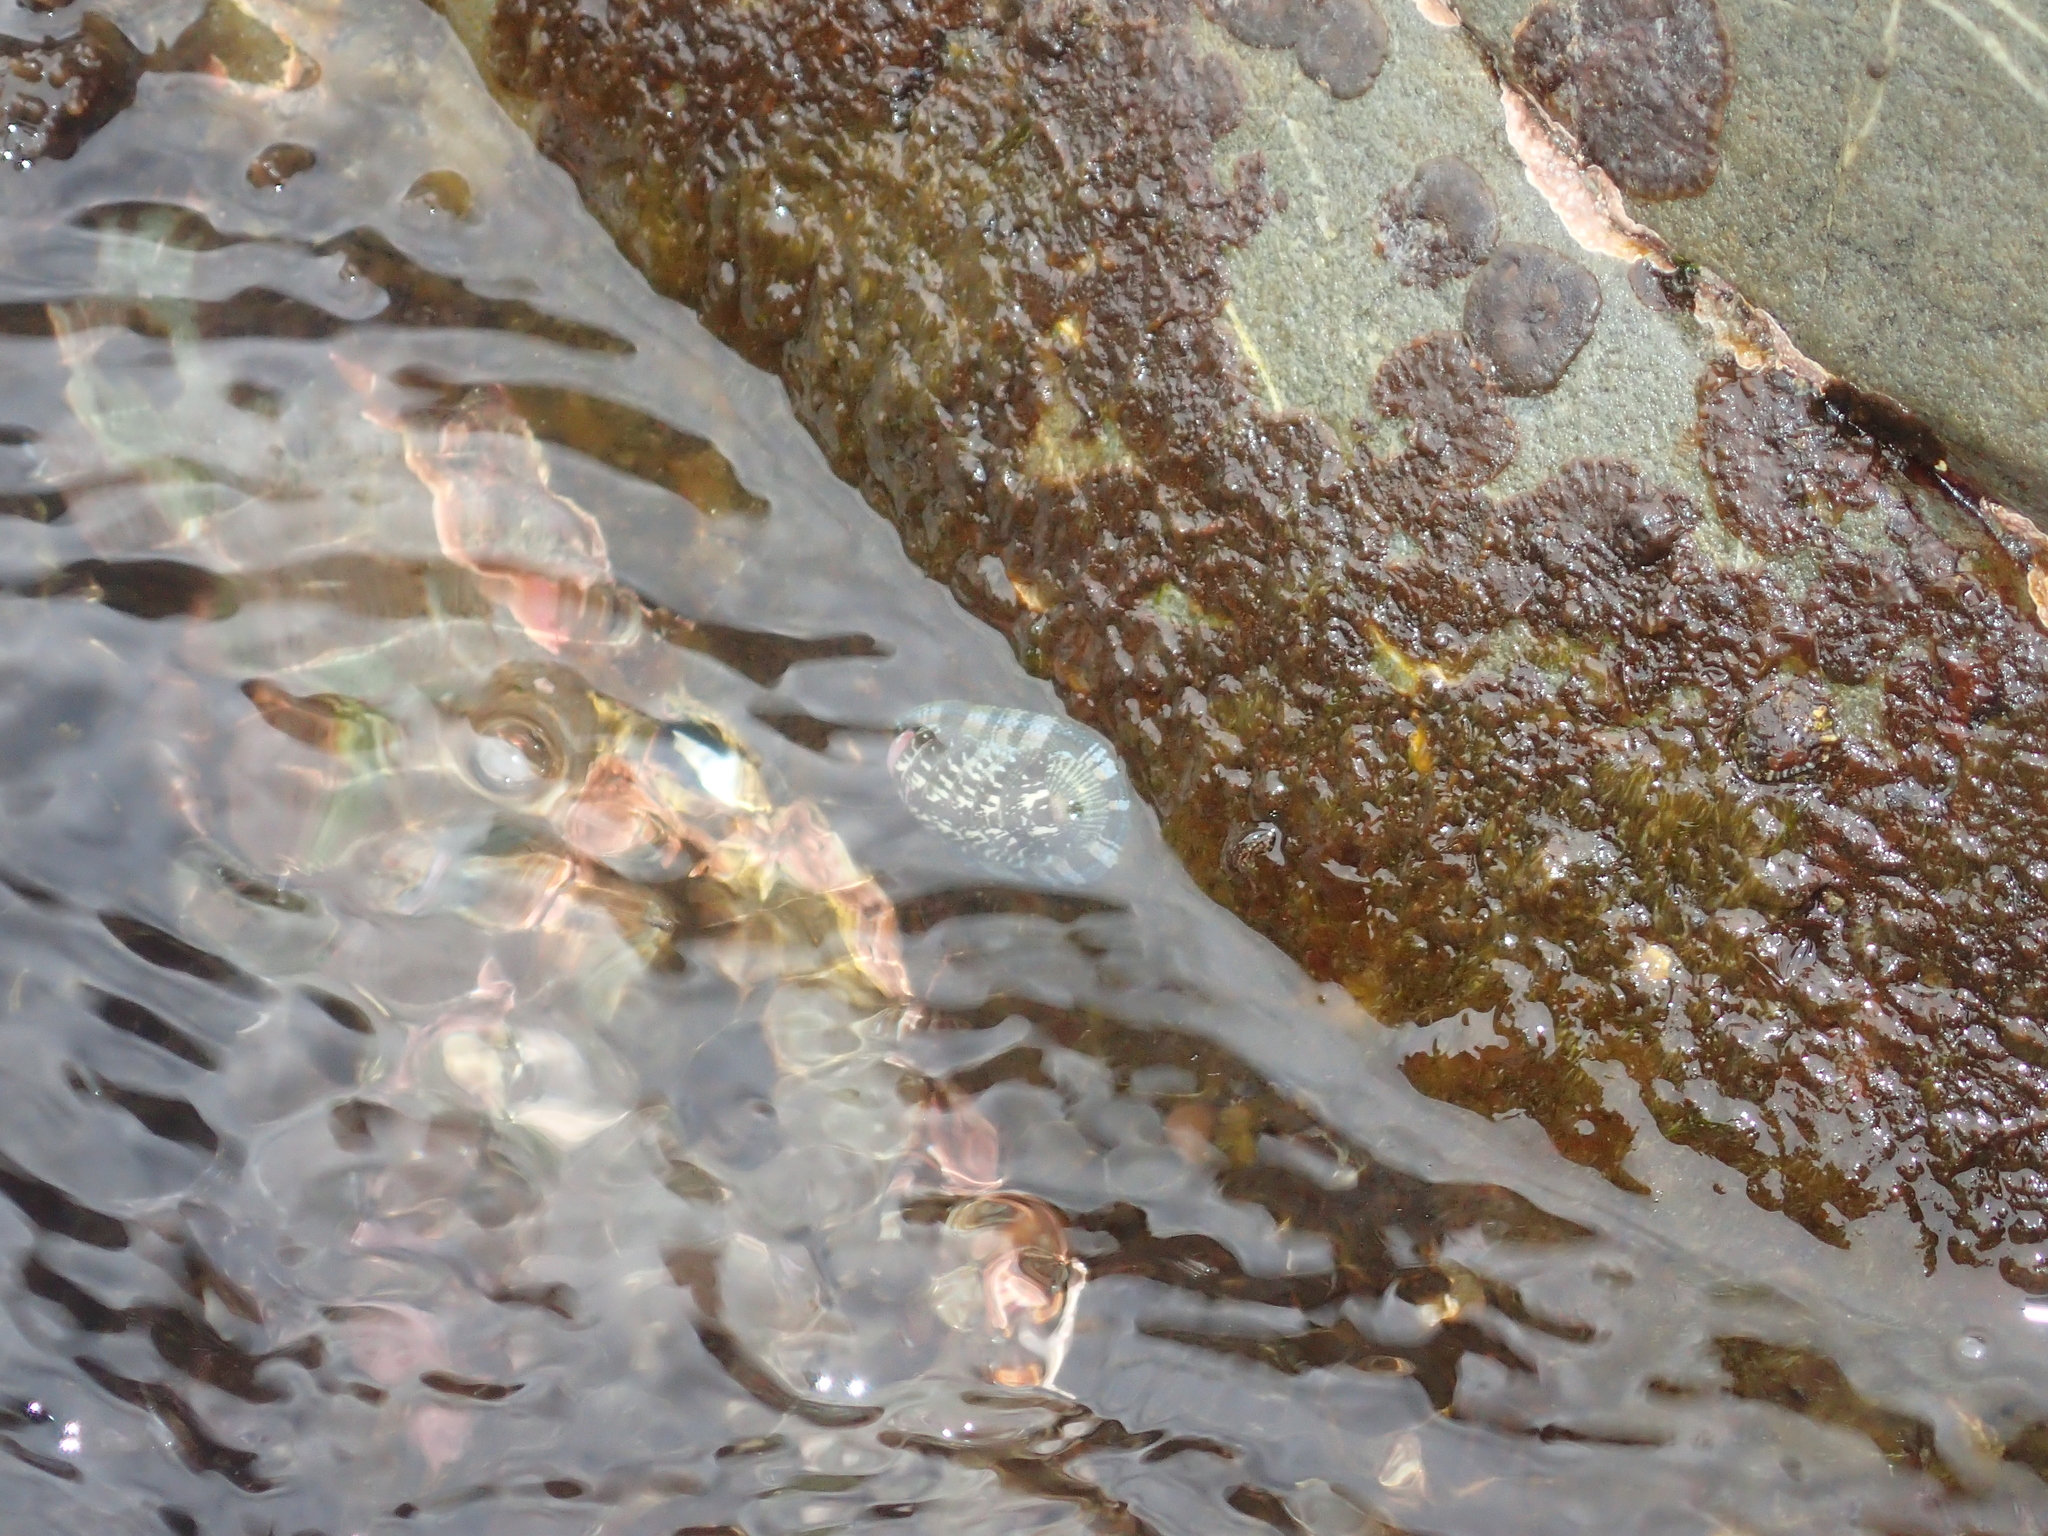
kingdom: Animalia
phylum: Mollusca
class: Polyplacophora
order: Chitonida
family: Chitonidae
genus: Sypharochiton
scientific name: Sypharochiton sinclairi
